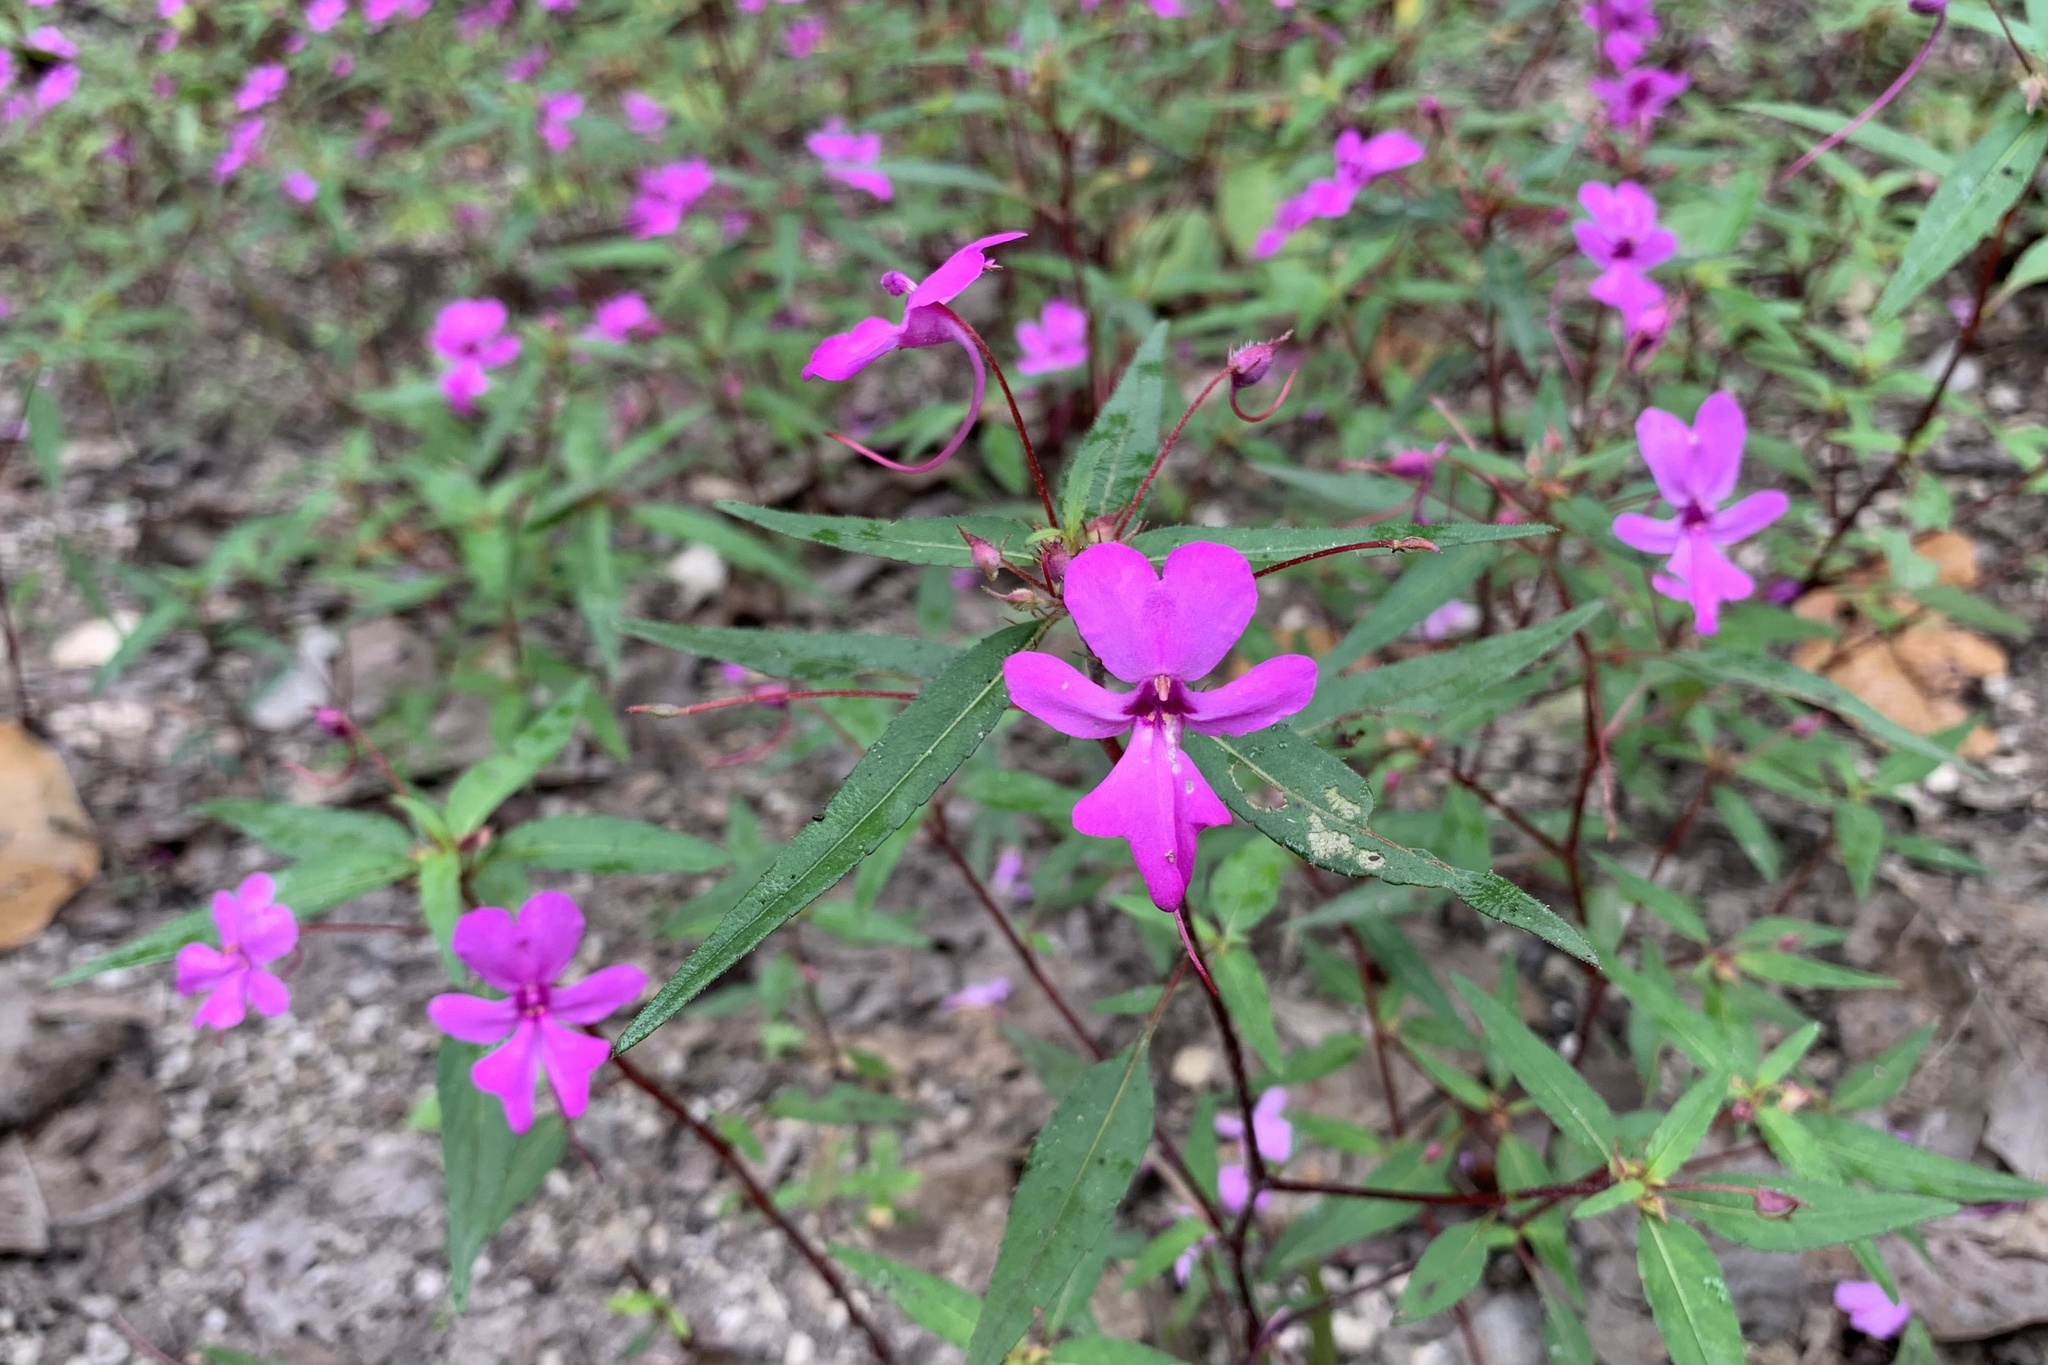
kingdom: Plantae
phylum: Tracheophyta
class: Magnoliopsida
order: Ericales
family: Balsaminaceae
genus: Impatiens
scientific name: Impatiens patula
